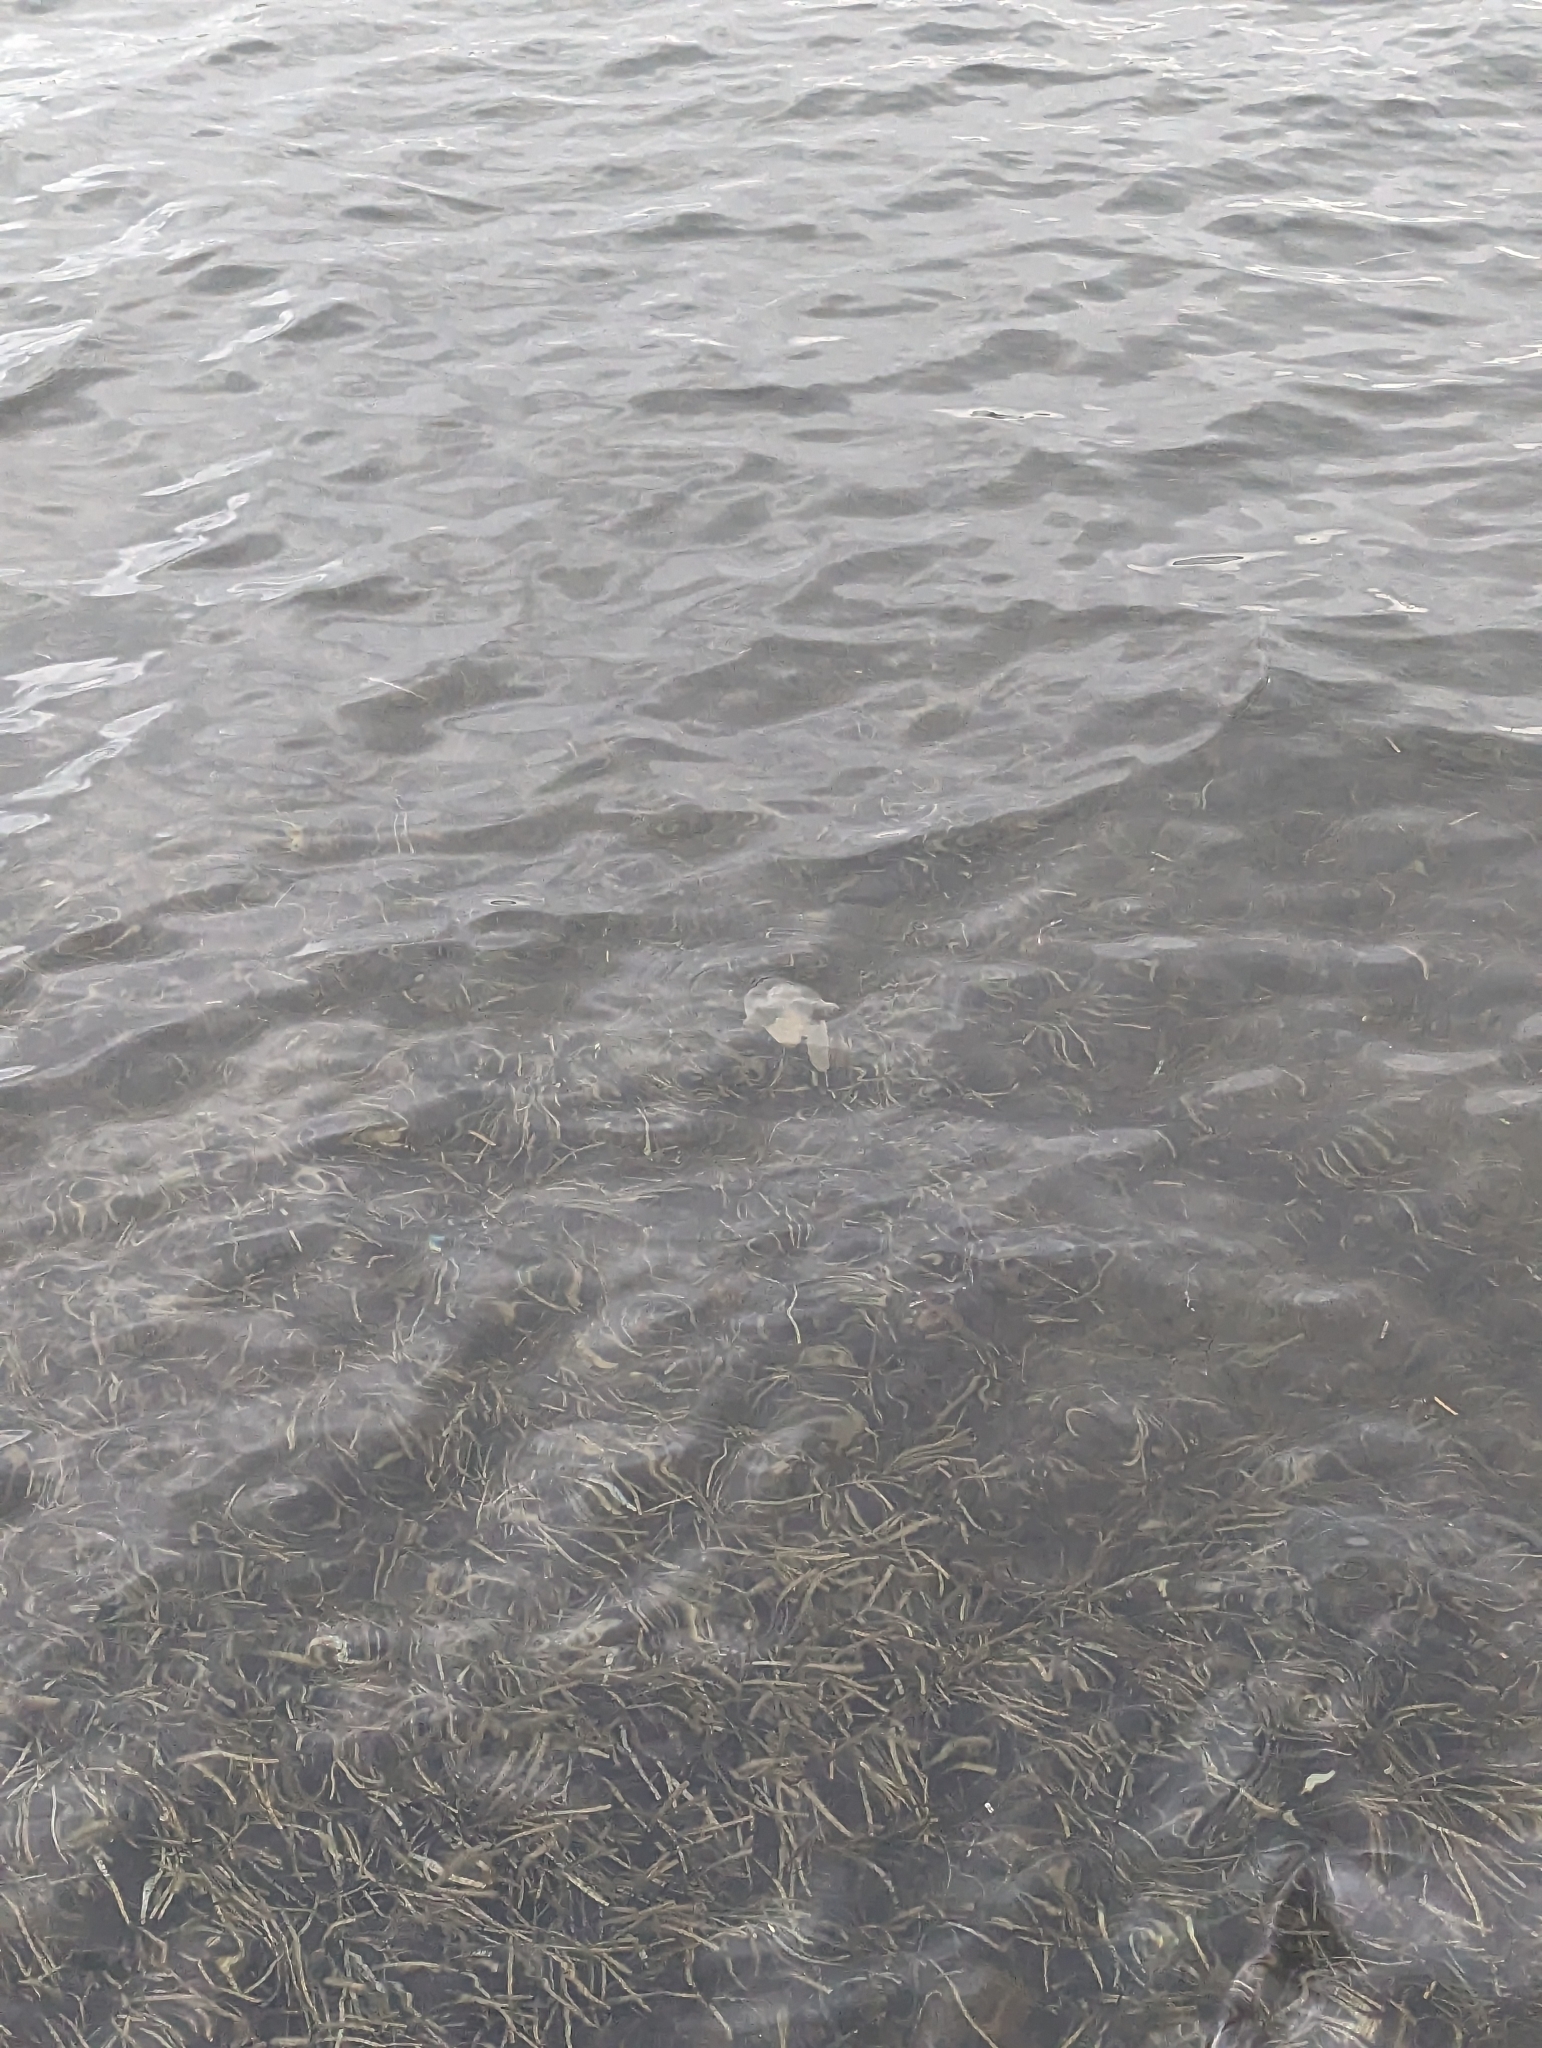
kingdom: Animalia
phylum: Cnidaria
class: Scyphozoa
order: Rhizostomeae
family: Catostylidae
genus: Catostylus
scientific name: Catostylus mosaicus
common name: Blue blubber
